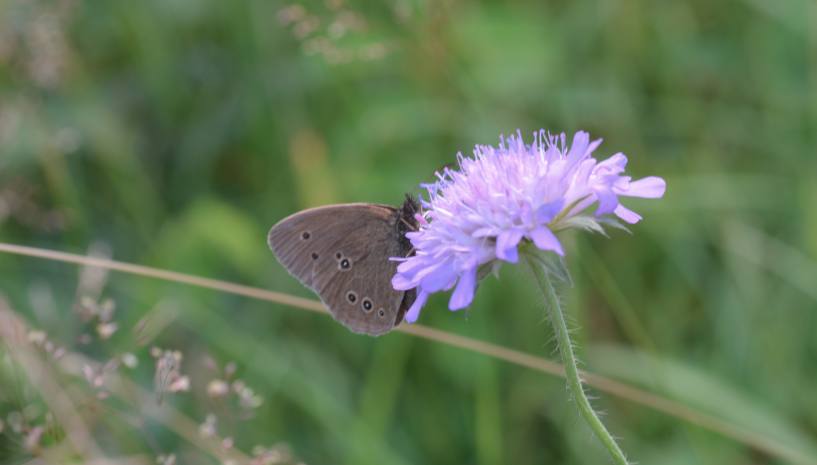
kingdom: Animalia
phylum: Arthropoda
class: Insecta
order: Lepidoptera
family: Nymphalidae
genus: Aphantopus
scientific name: Aphantopus hyperantus
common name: Ringlet
